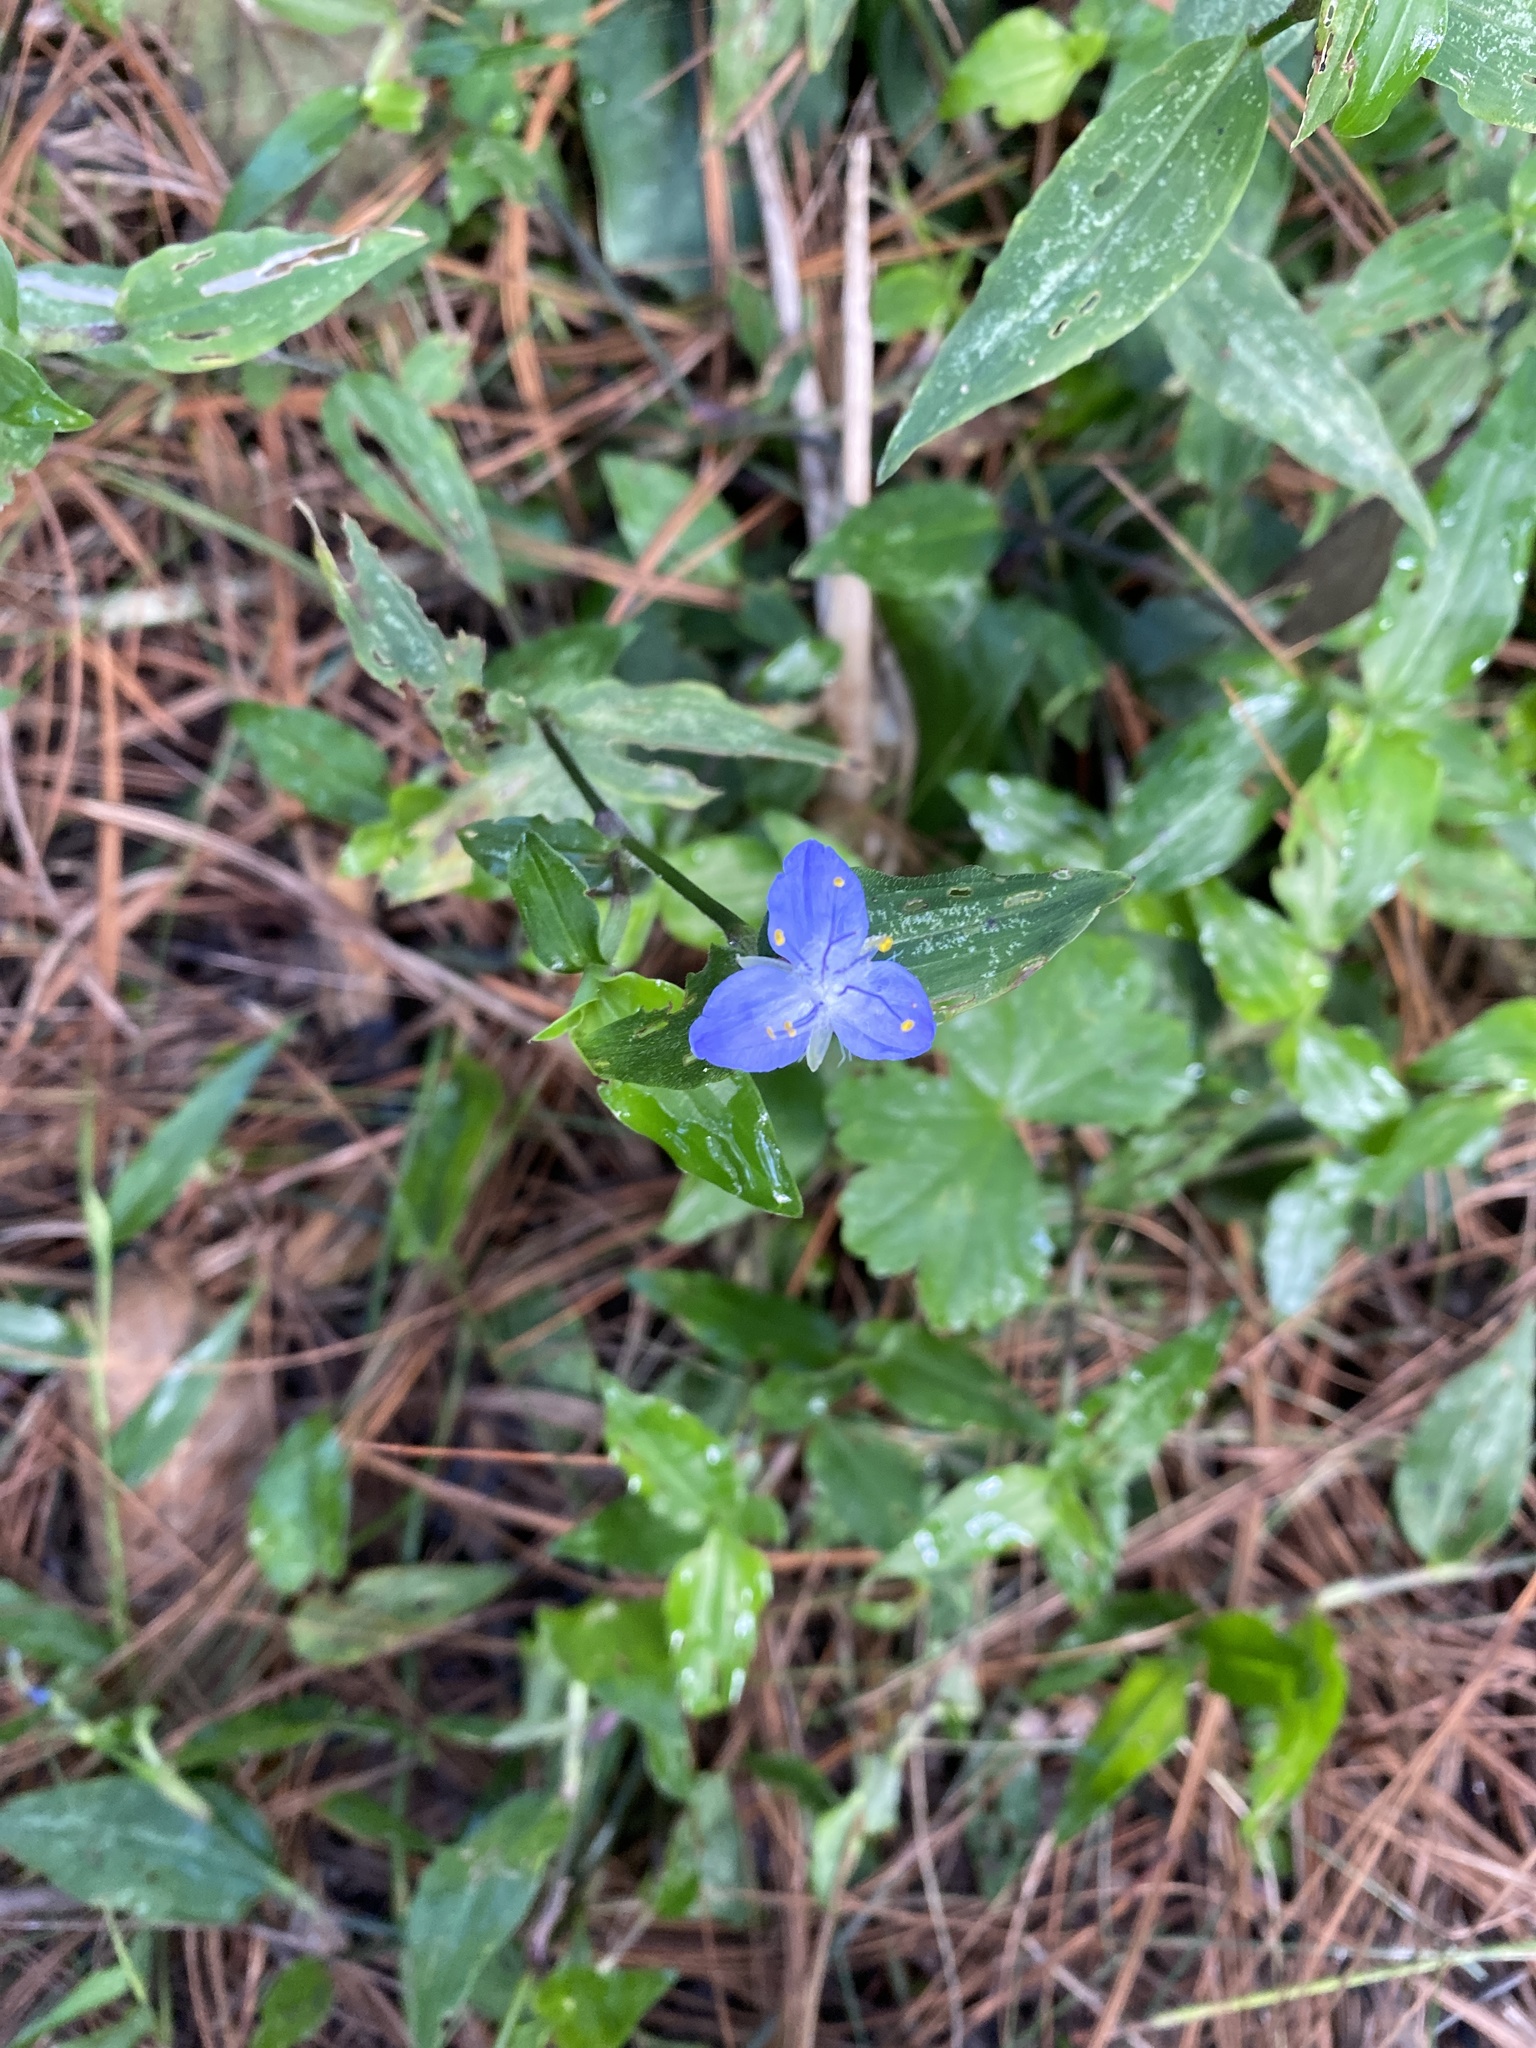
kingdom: Plantae
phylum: Tracheophyta
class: Liliopsida
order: Commelinales
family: Commelinaceae
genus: Elasis
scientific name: Elasis guatemalensis
